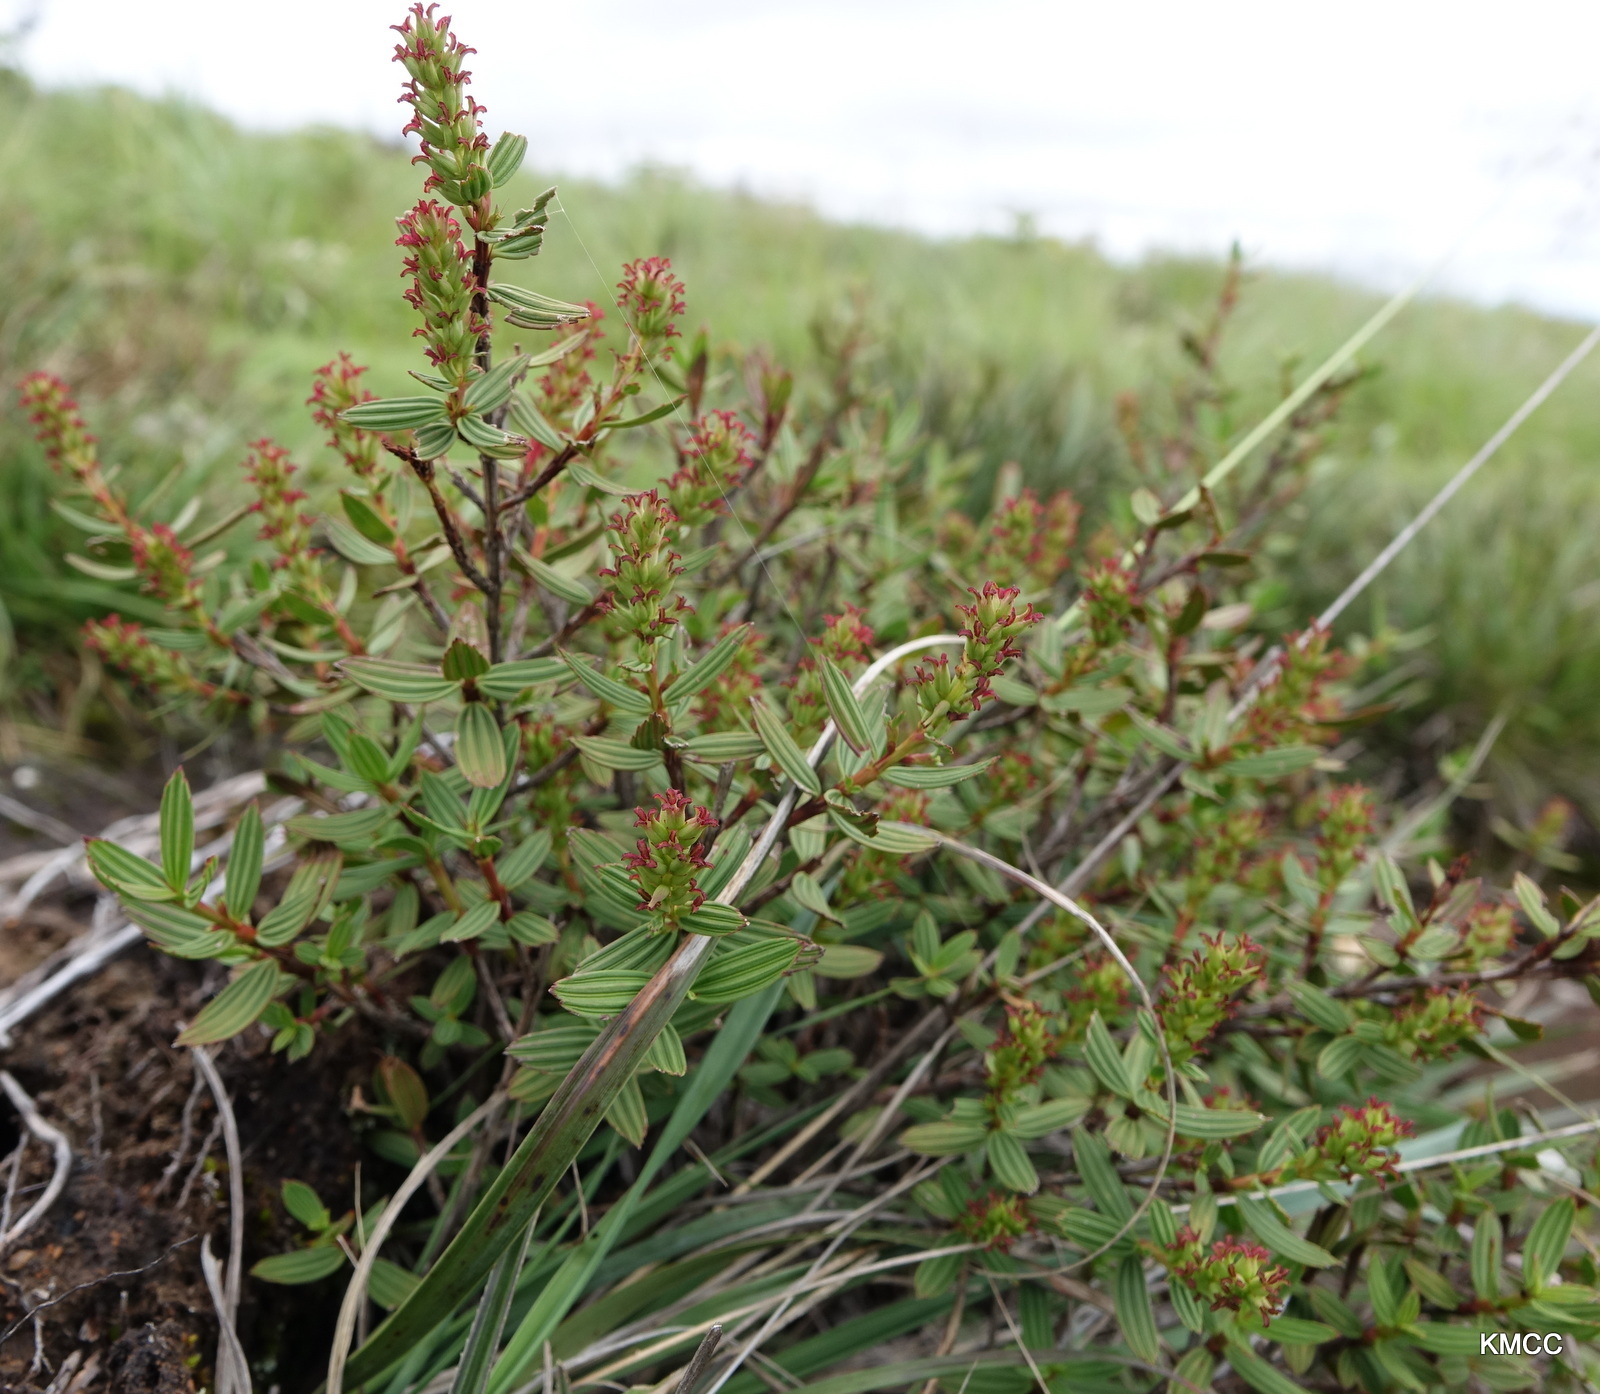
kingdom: Plantae
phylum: Tracheophyta
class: Magnoliopsida
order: Gunnerales
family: Myrothamnaceae
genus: Myrothamnus
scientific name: Myrothamnus moschatus
